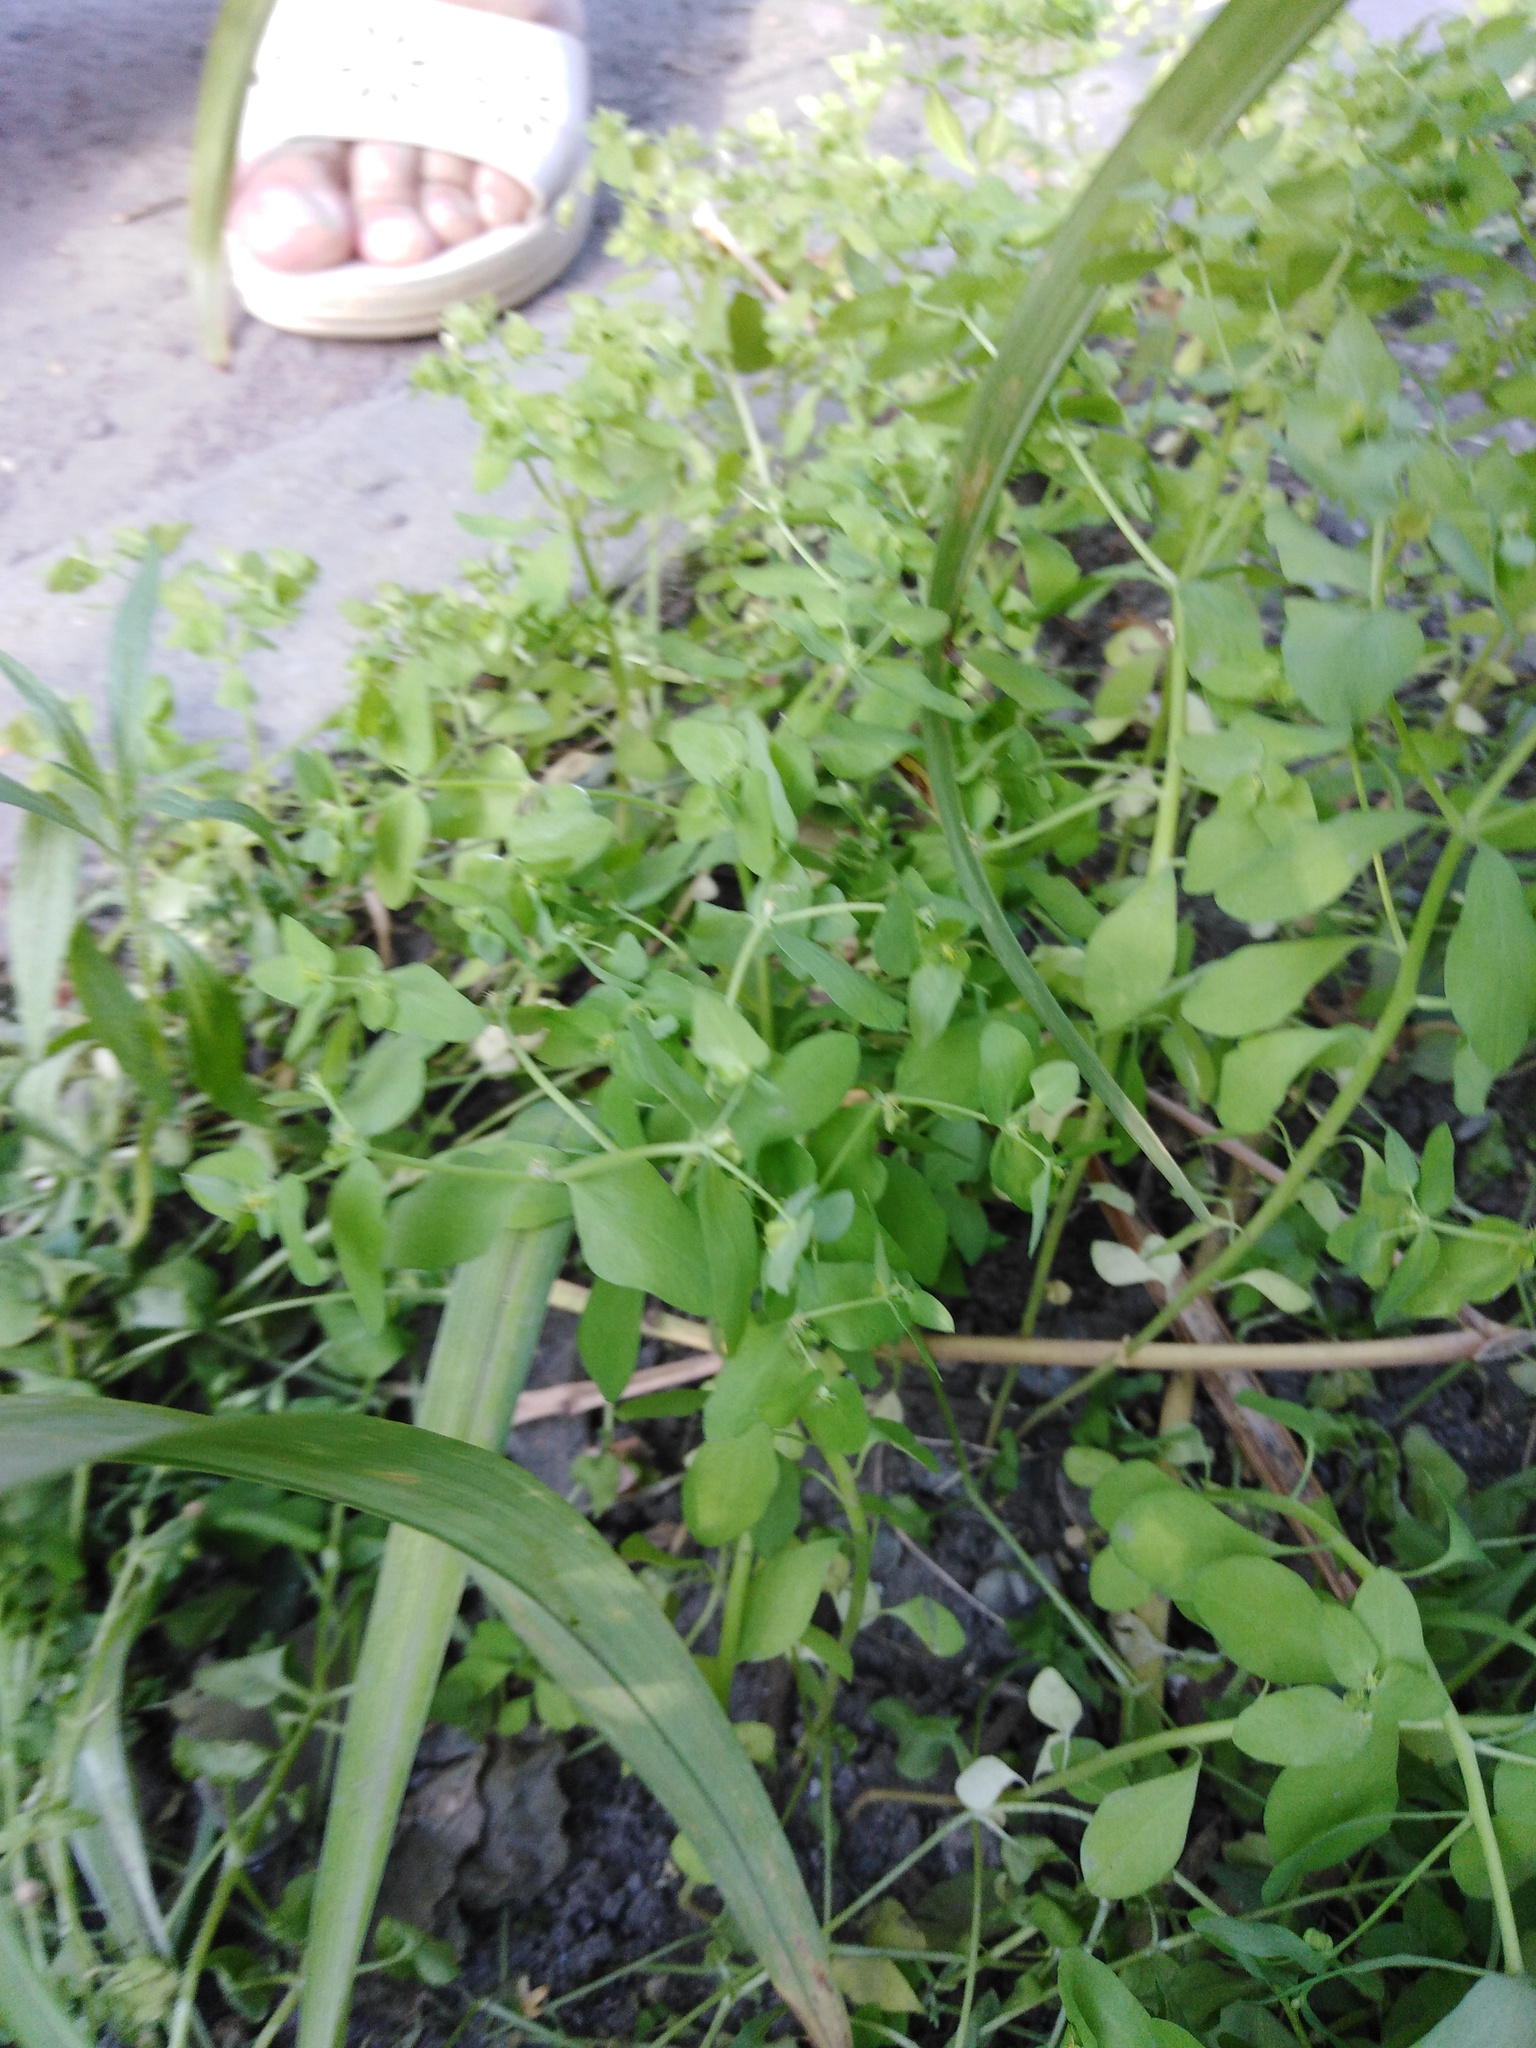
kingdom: Plantae
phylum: Tracheophyta
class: Magnoliopsida
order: Malpighiales
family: Euphorbiaceae
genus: Euphorbia
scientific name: Euphorbia peplus
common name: Petty spurge
